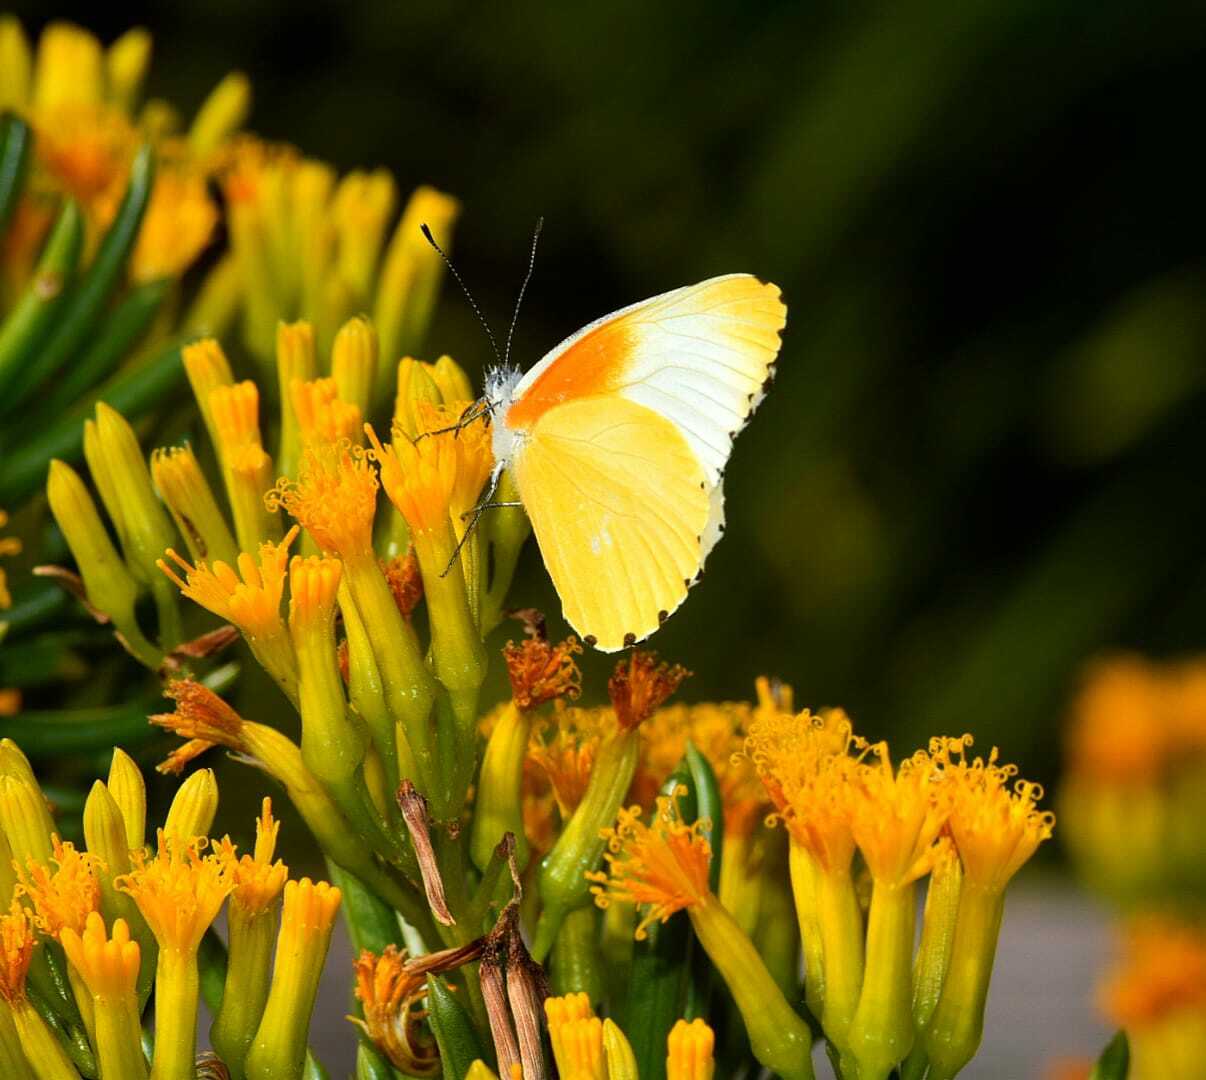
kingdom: Animalia
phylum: Arthropoda
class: Insecta
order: Lepidoptera
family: Pieridae
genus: Mylothris
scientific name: Mylothris agathina
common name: Eastern dotted border
